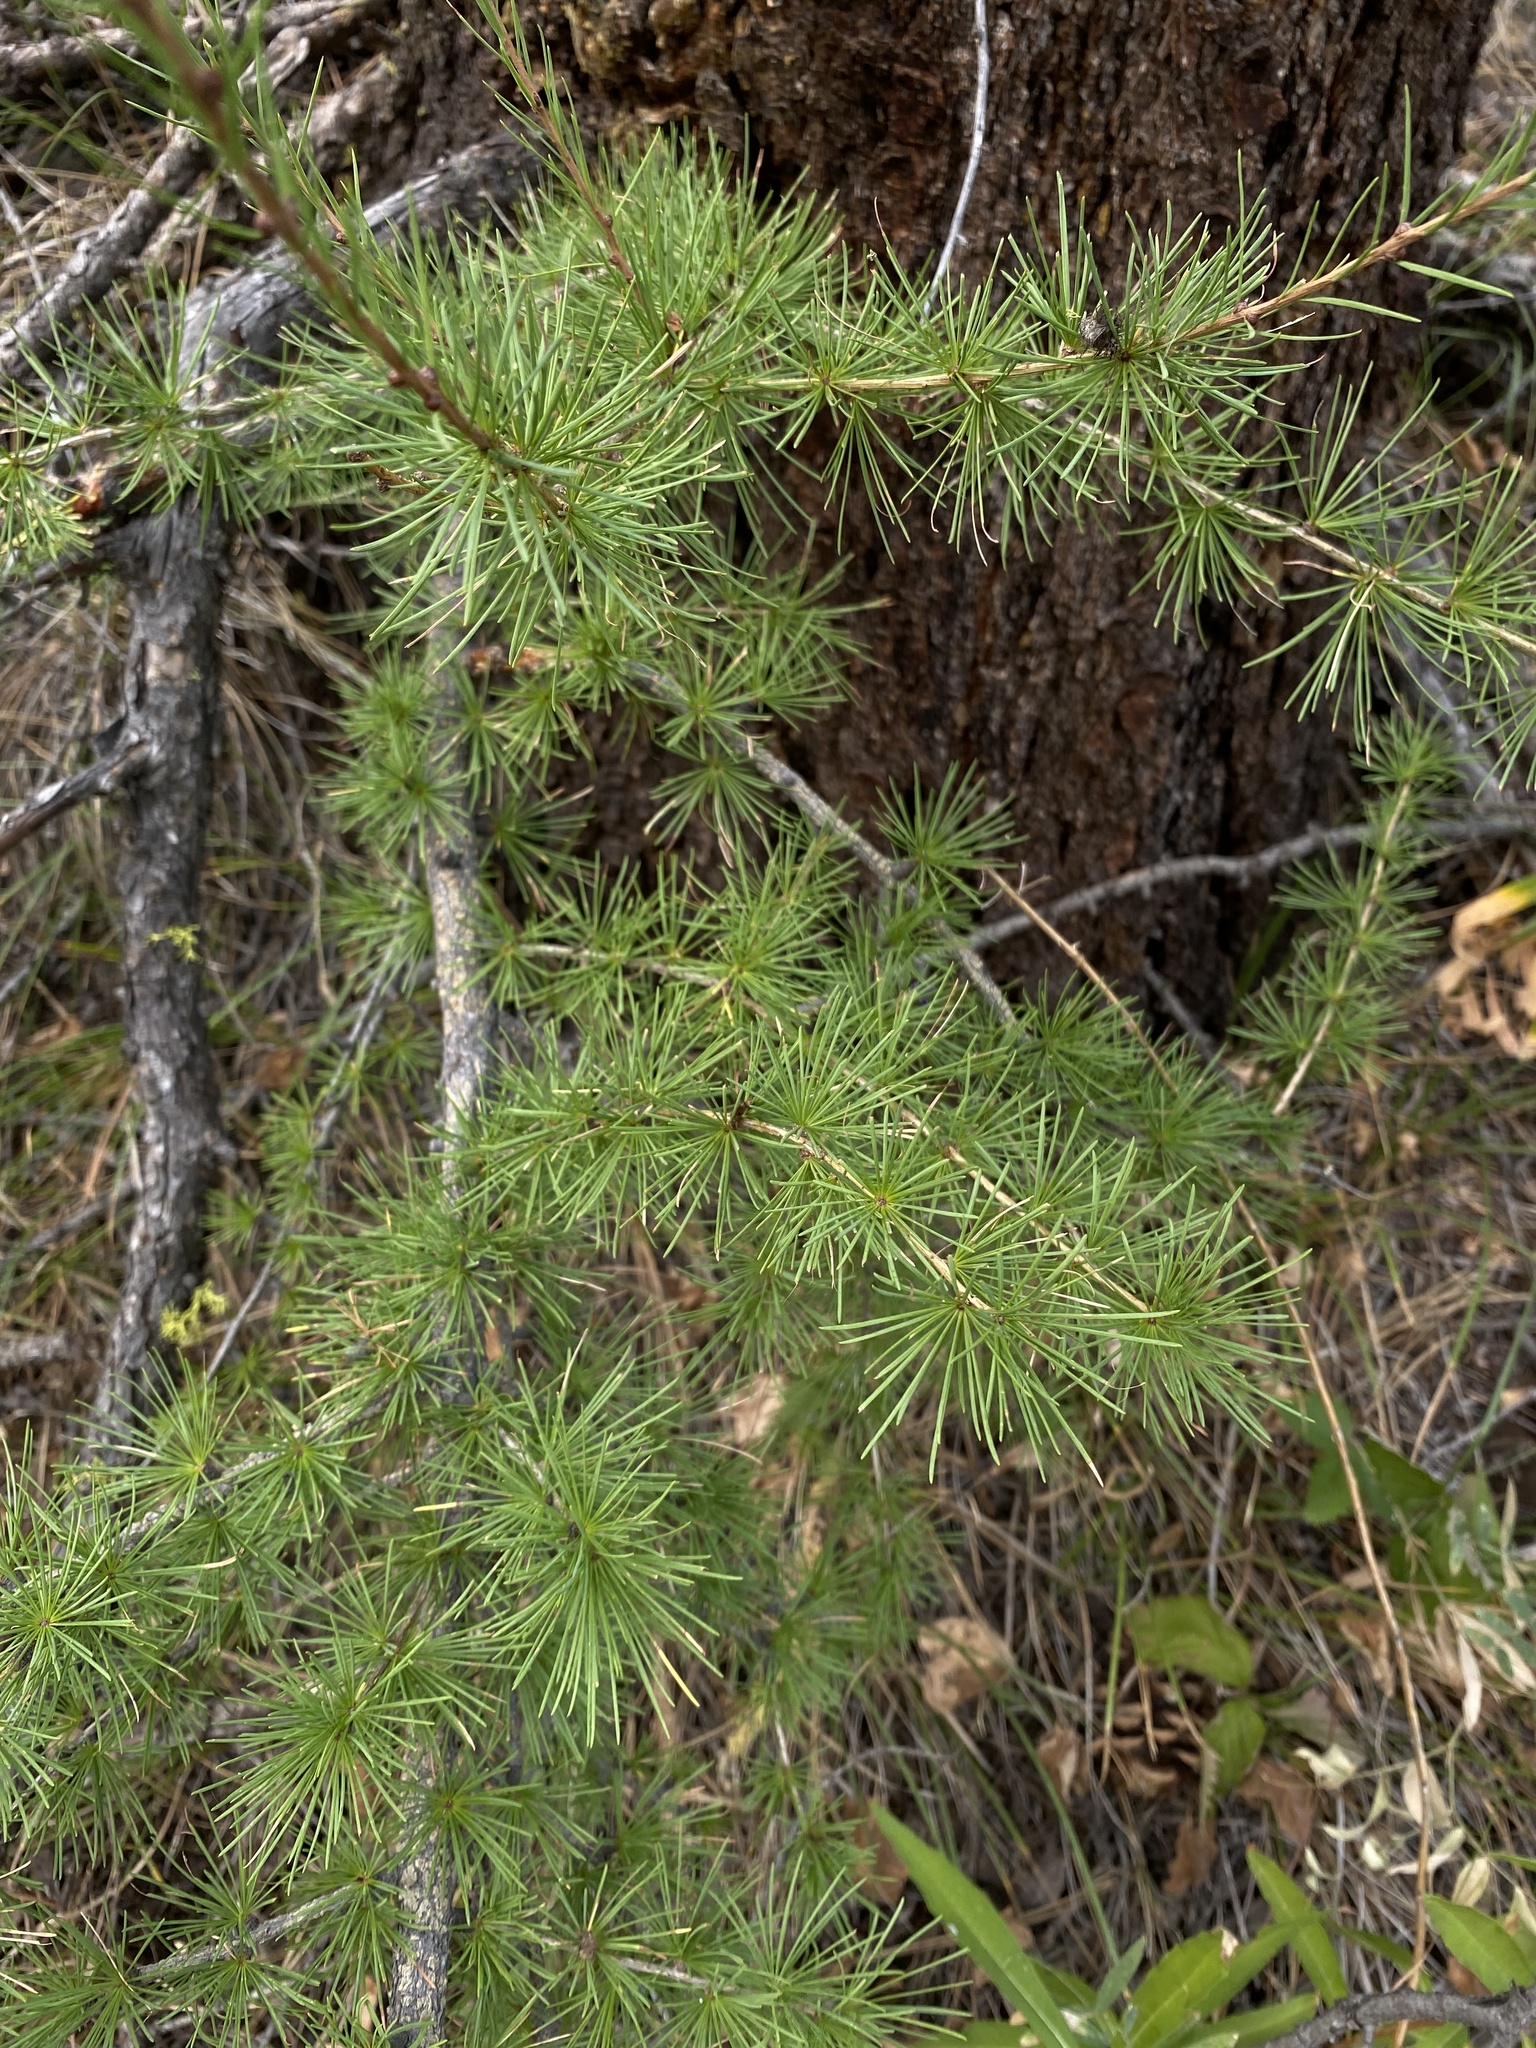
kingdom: Plantae
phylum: Tracheophyta
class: Pinopsida
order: Pinales
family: Pinaceae
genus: Larix
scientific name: Larix occidentalis
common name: Western larch
